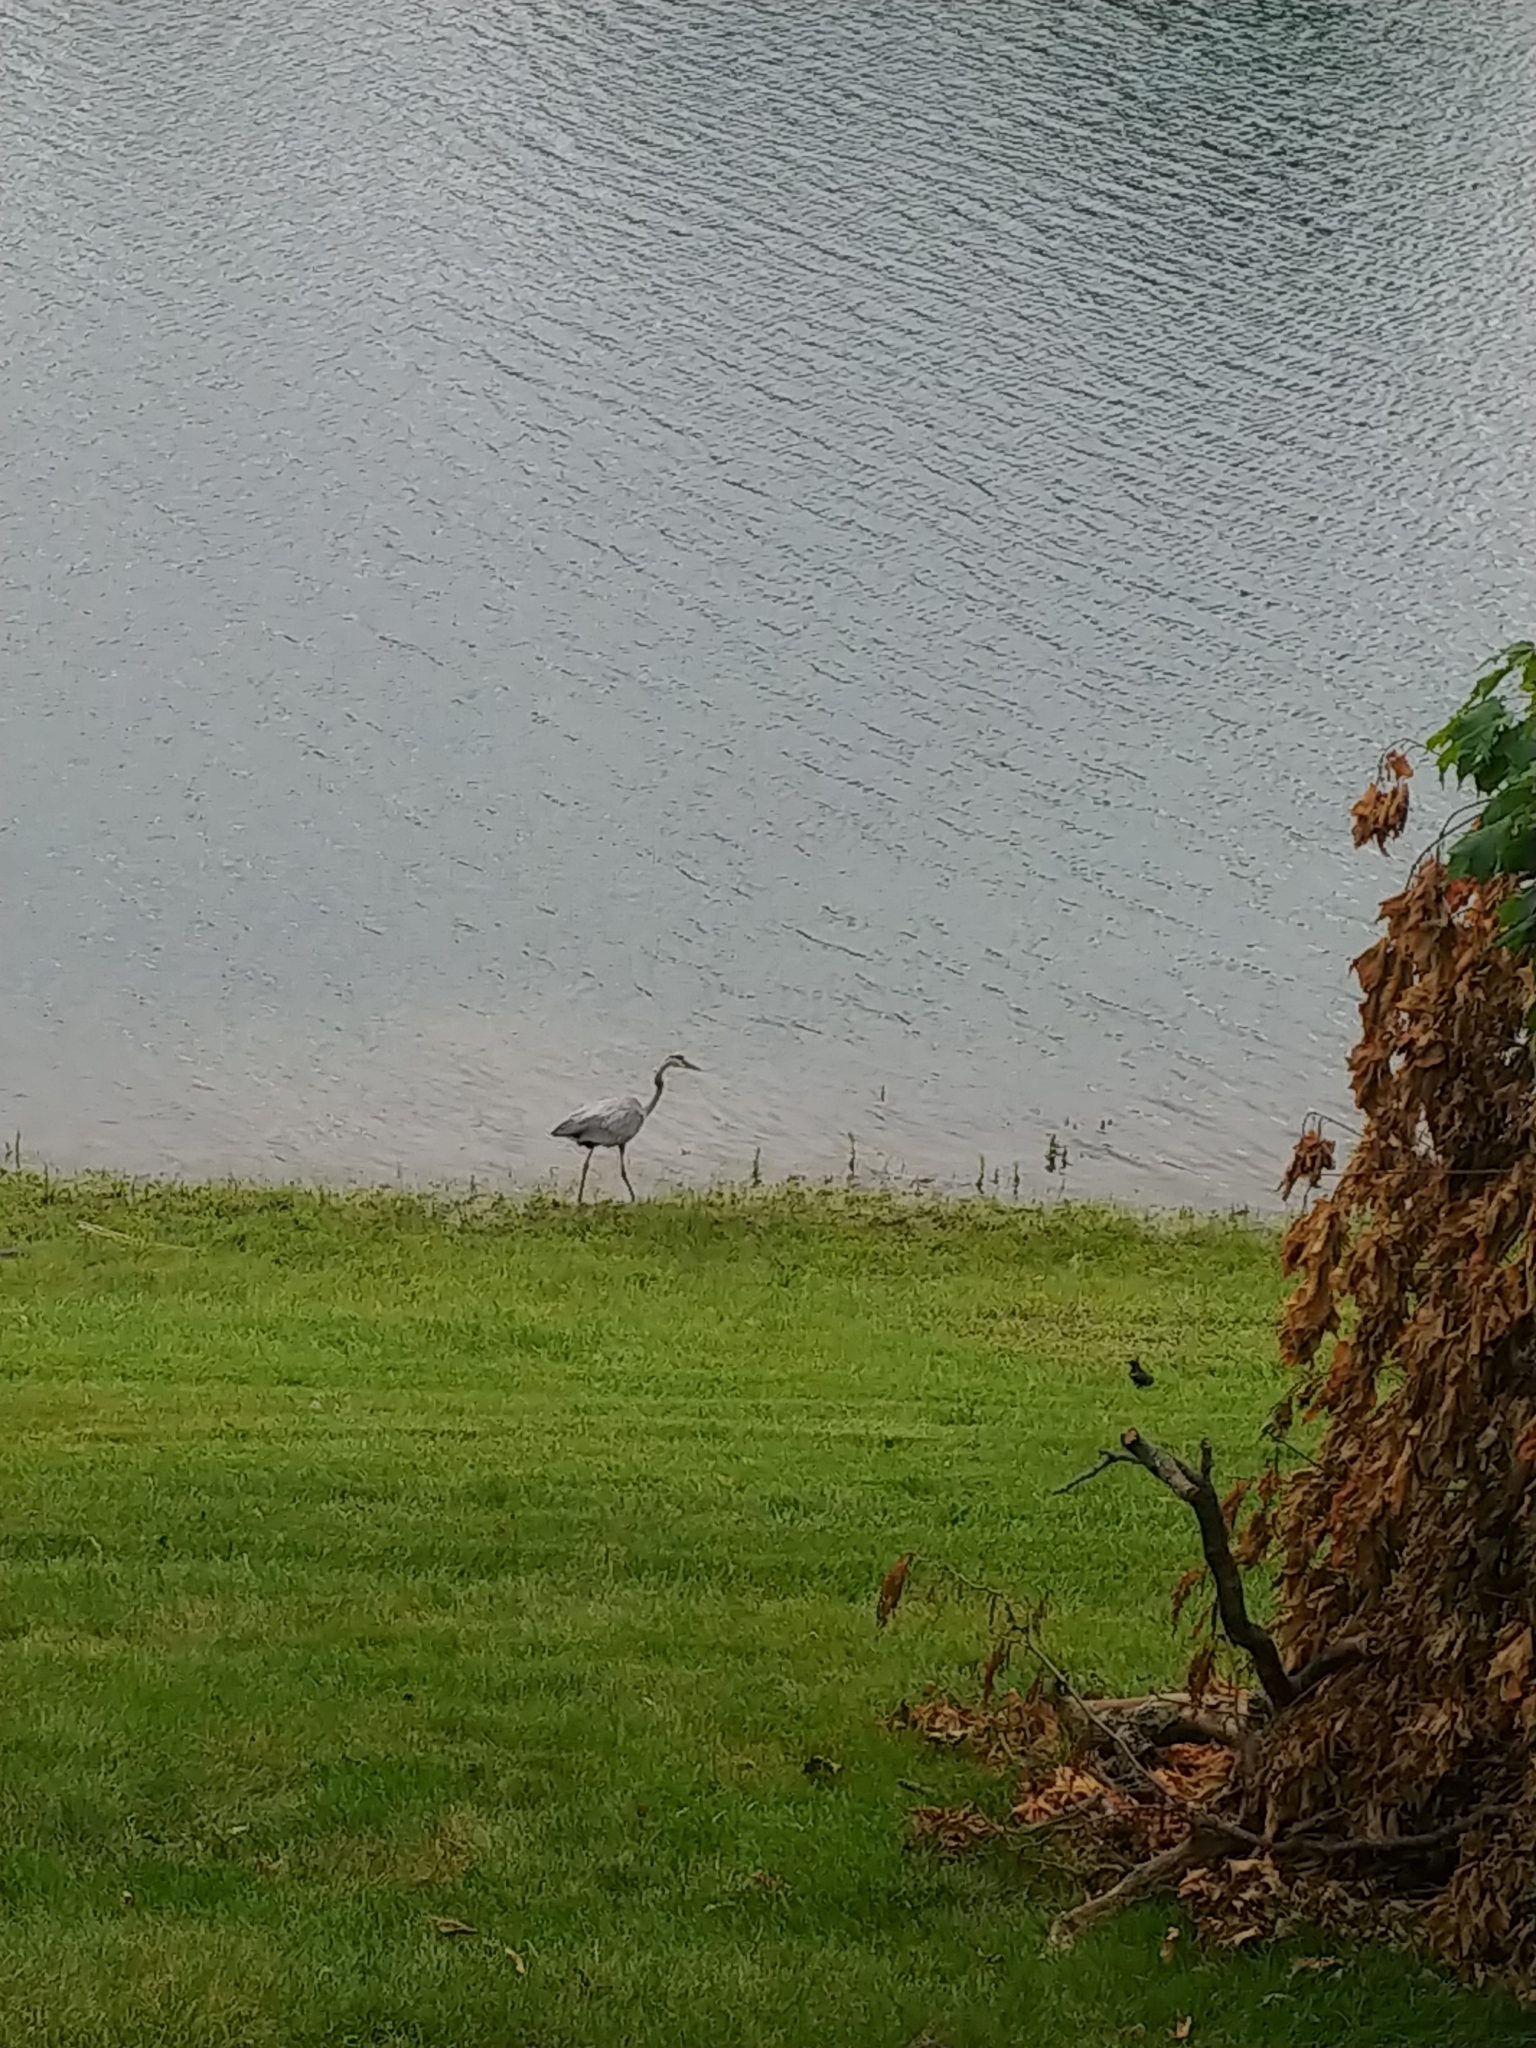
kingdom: Animalia
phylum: Chordata
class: Aves
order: Pelecaniformes
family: Ardeidae
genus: Ardea
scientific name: Ardea herodias
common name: Great blue heron
